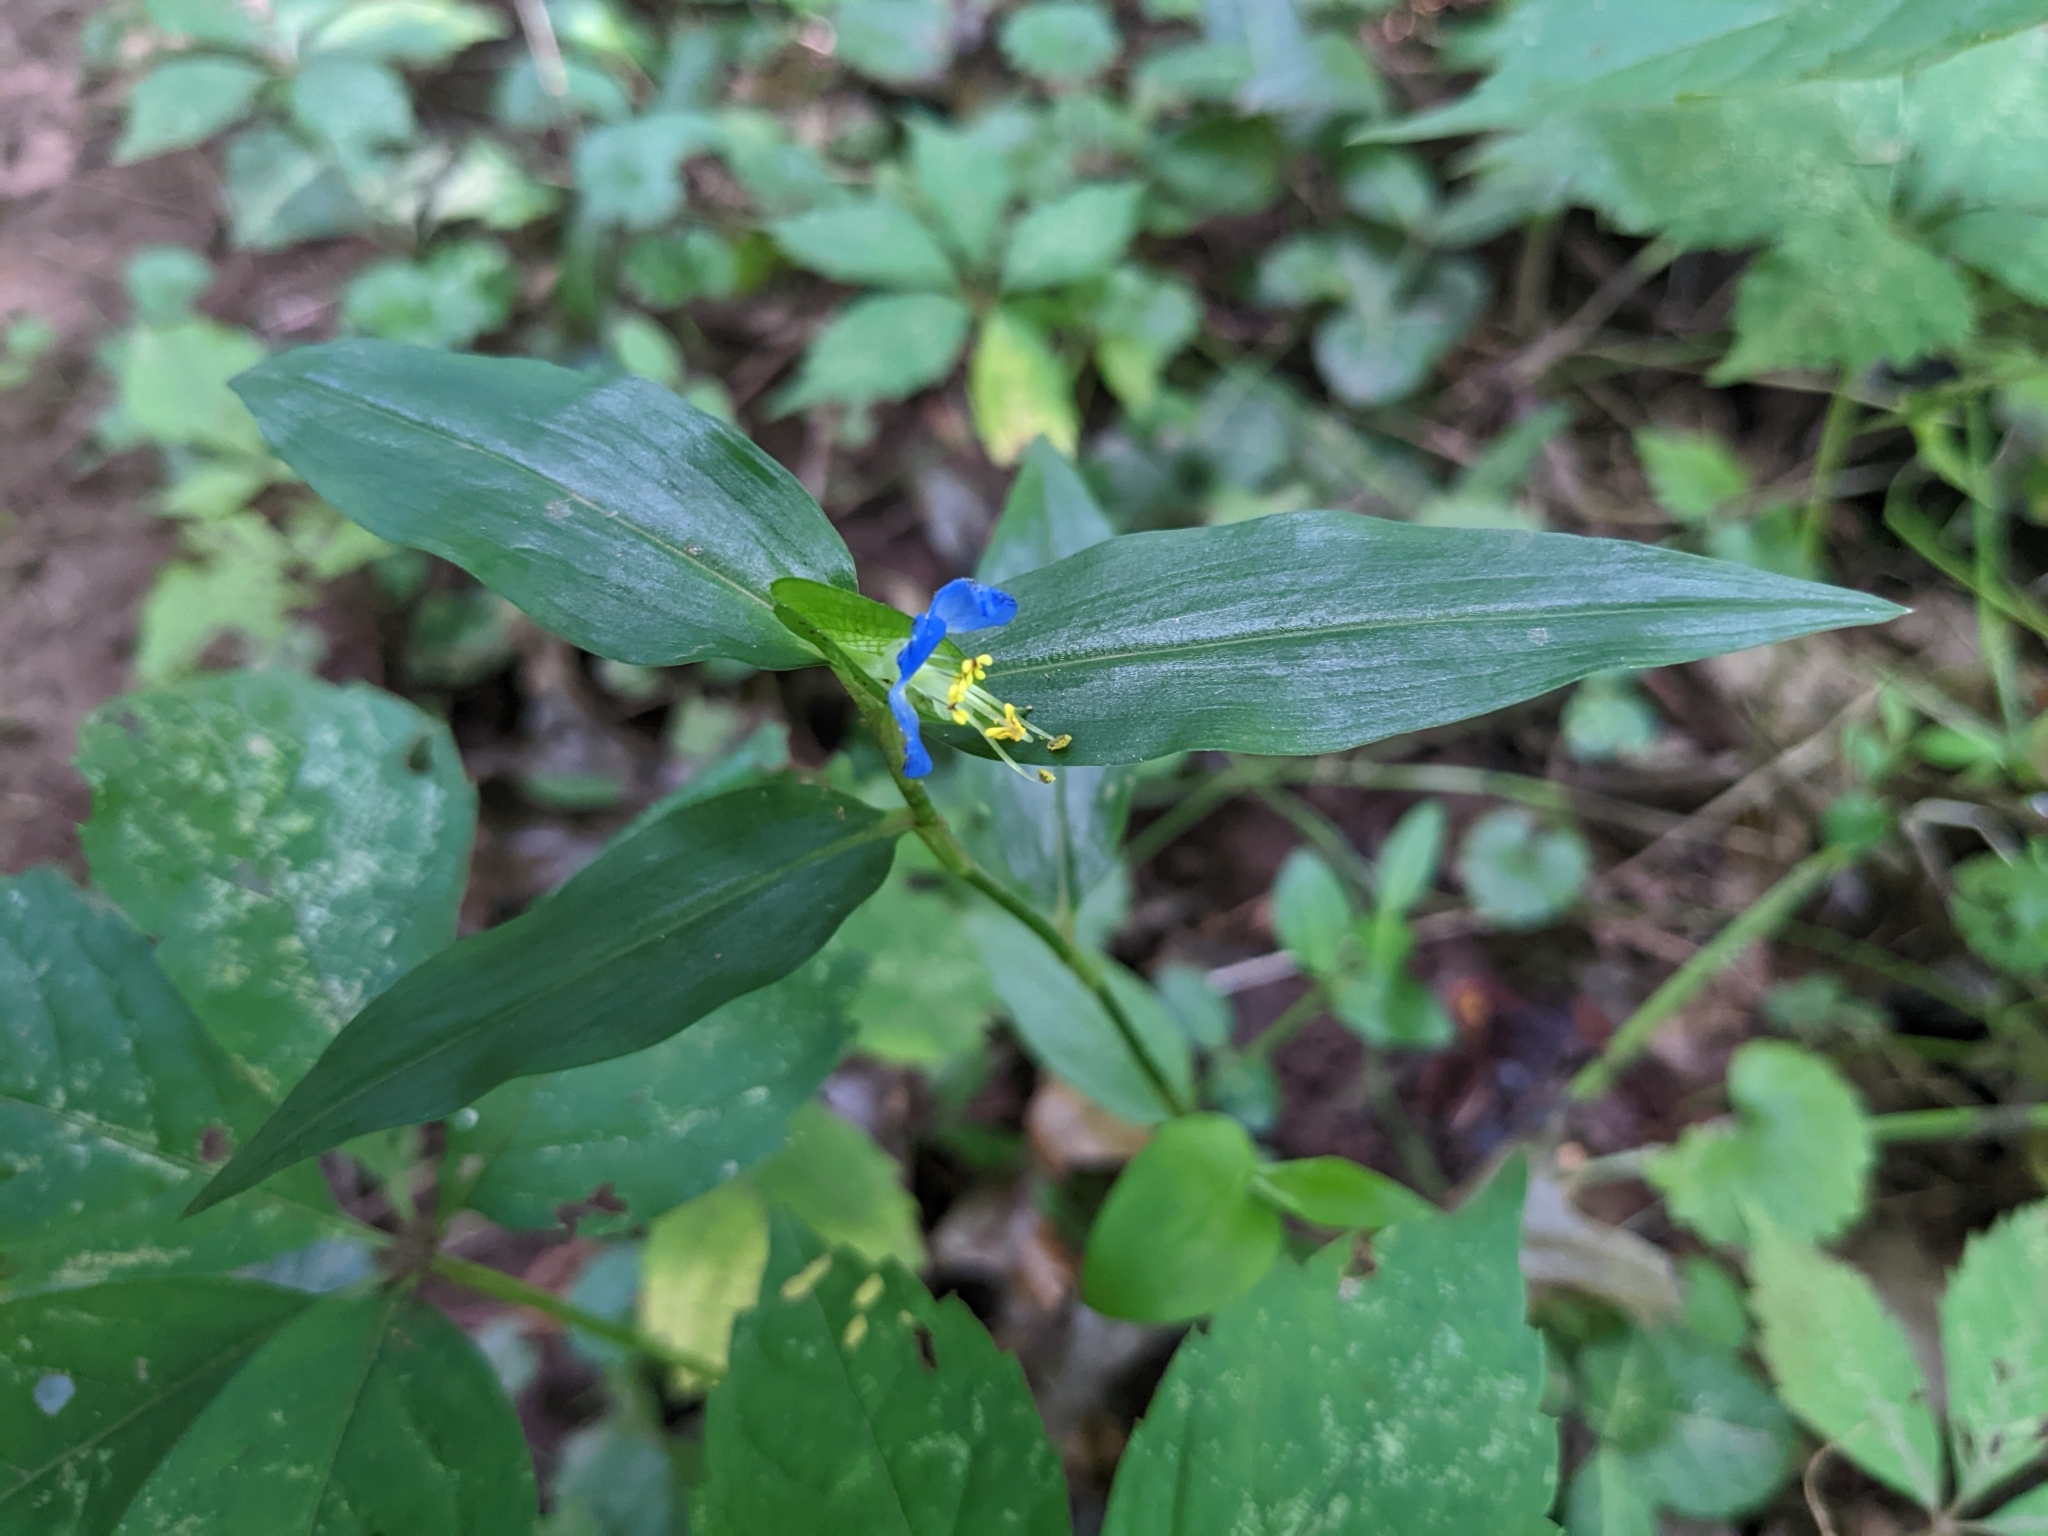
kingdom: Plantae
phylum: Tracheophyta
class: Liliopsida
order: Commelinales
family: Commelinaceae
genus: Commelina
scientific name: Commelina communis
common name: Asiatic dayflower
